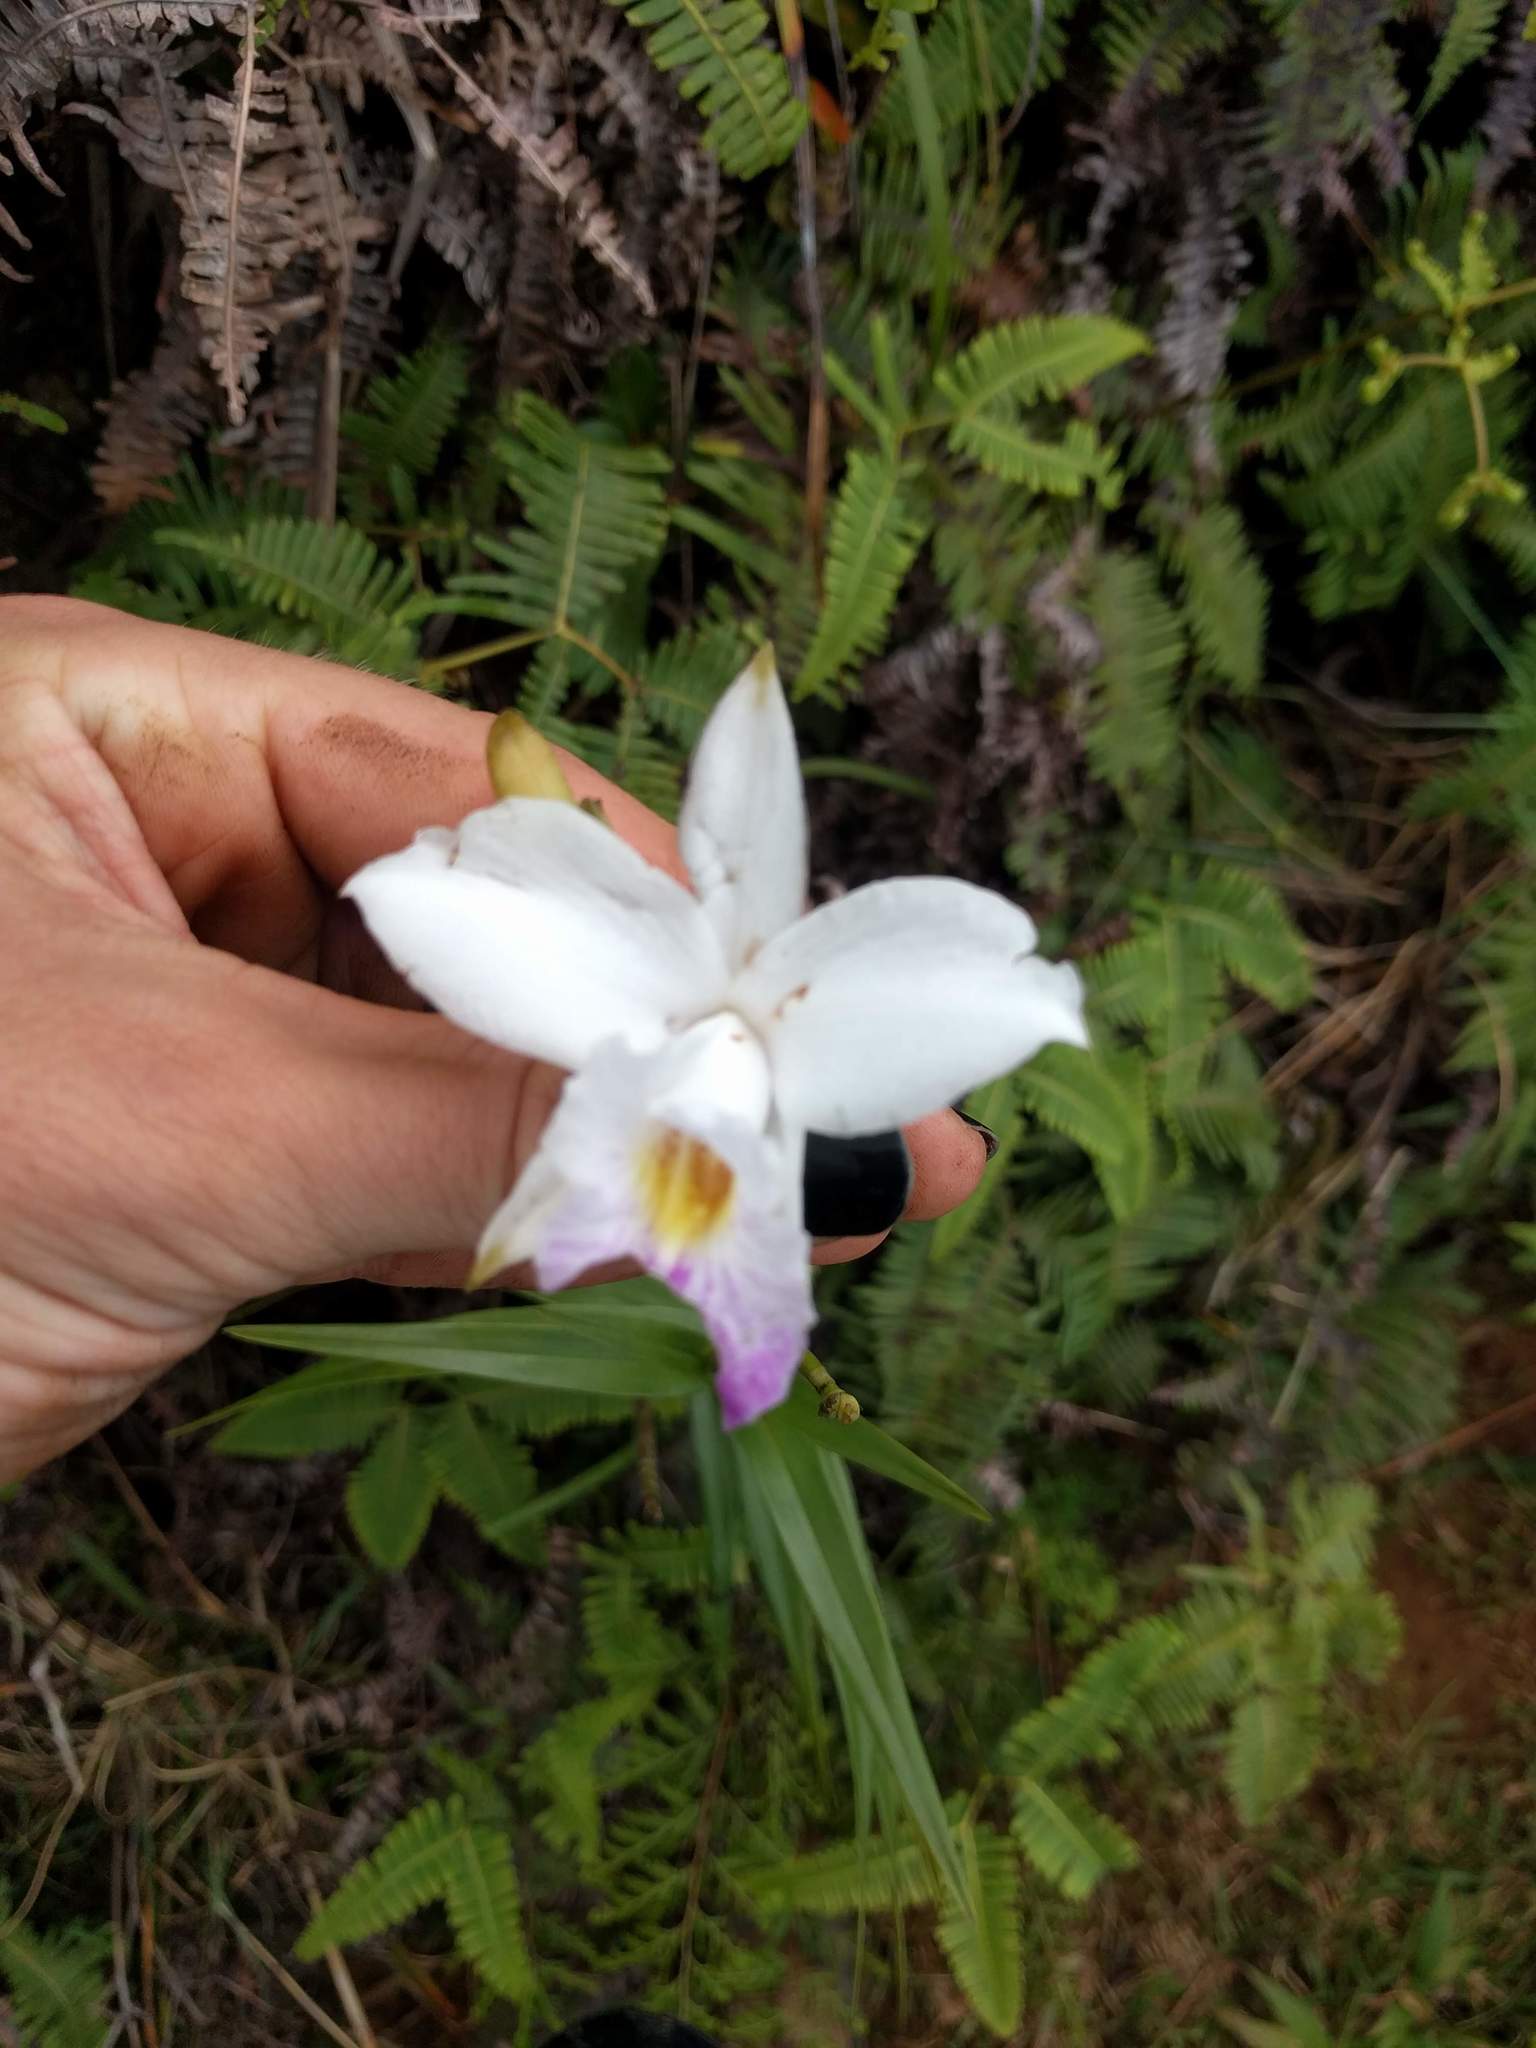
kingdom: Plantae
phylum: Tracheophyta
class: Liliopsida
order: Asparagales
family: Orchidaceae
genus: Arundina
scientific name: Arundina graminifolia
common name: Bamboo orchid
